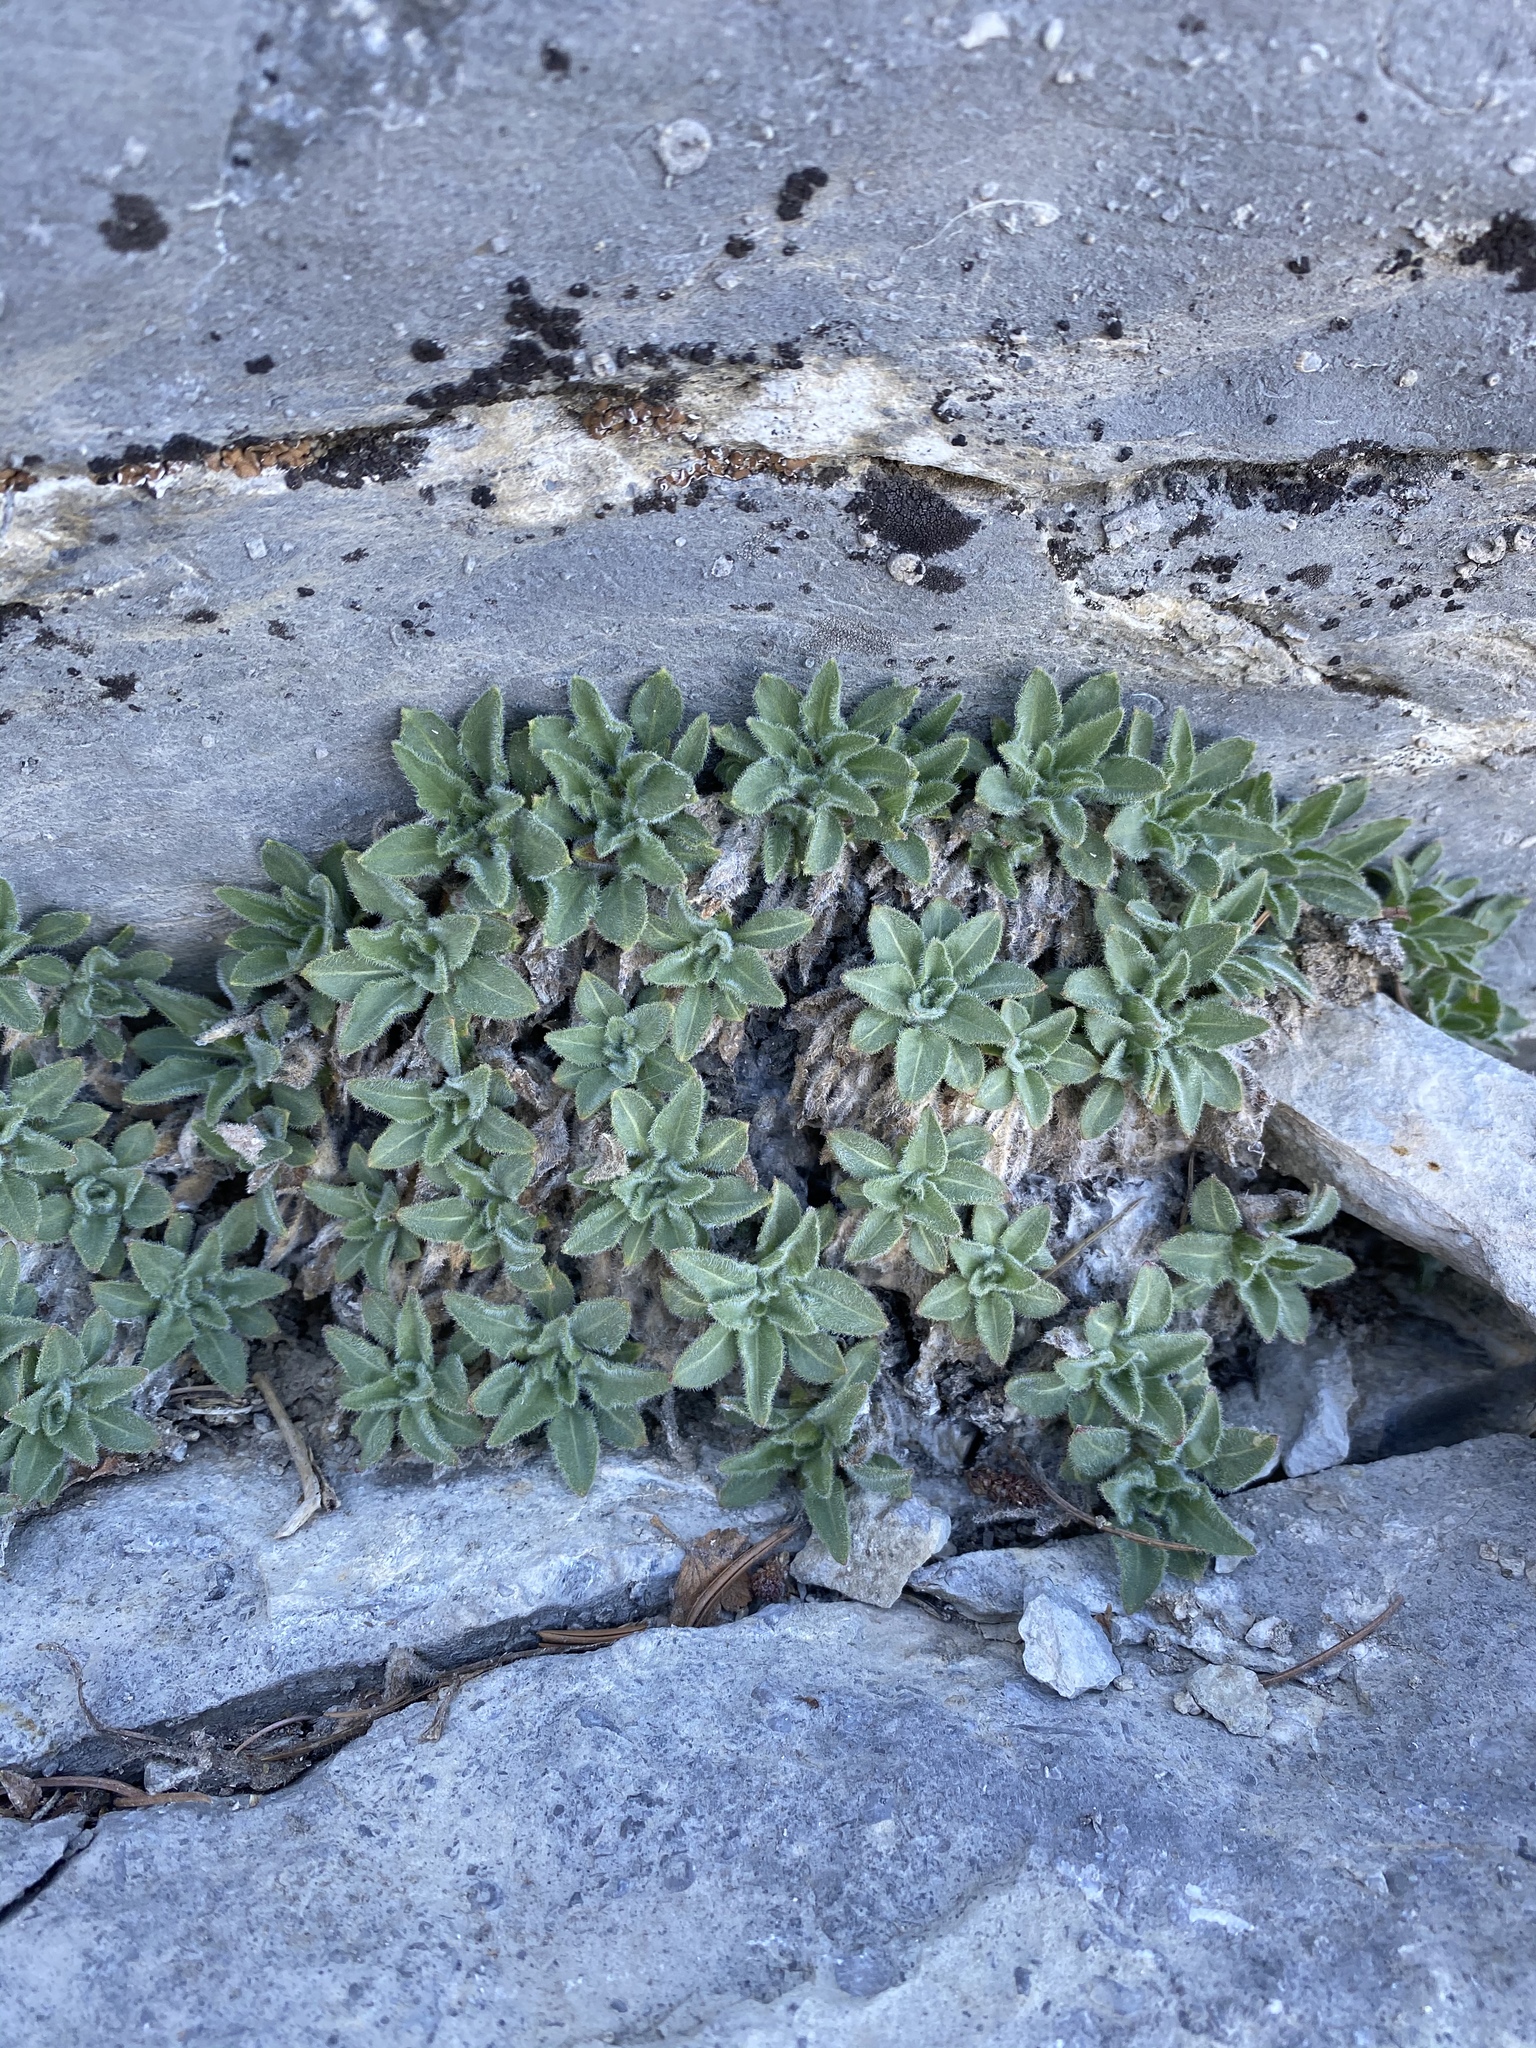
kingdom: Plantae
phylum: Tracheophyta
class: Magnoliopsida
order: Myrtales
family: Onagraceae
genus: Oenothera
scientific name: Oenothera cespitosa
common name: Tufted evening-primrose
